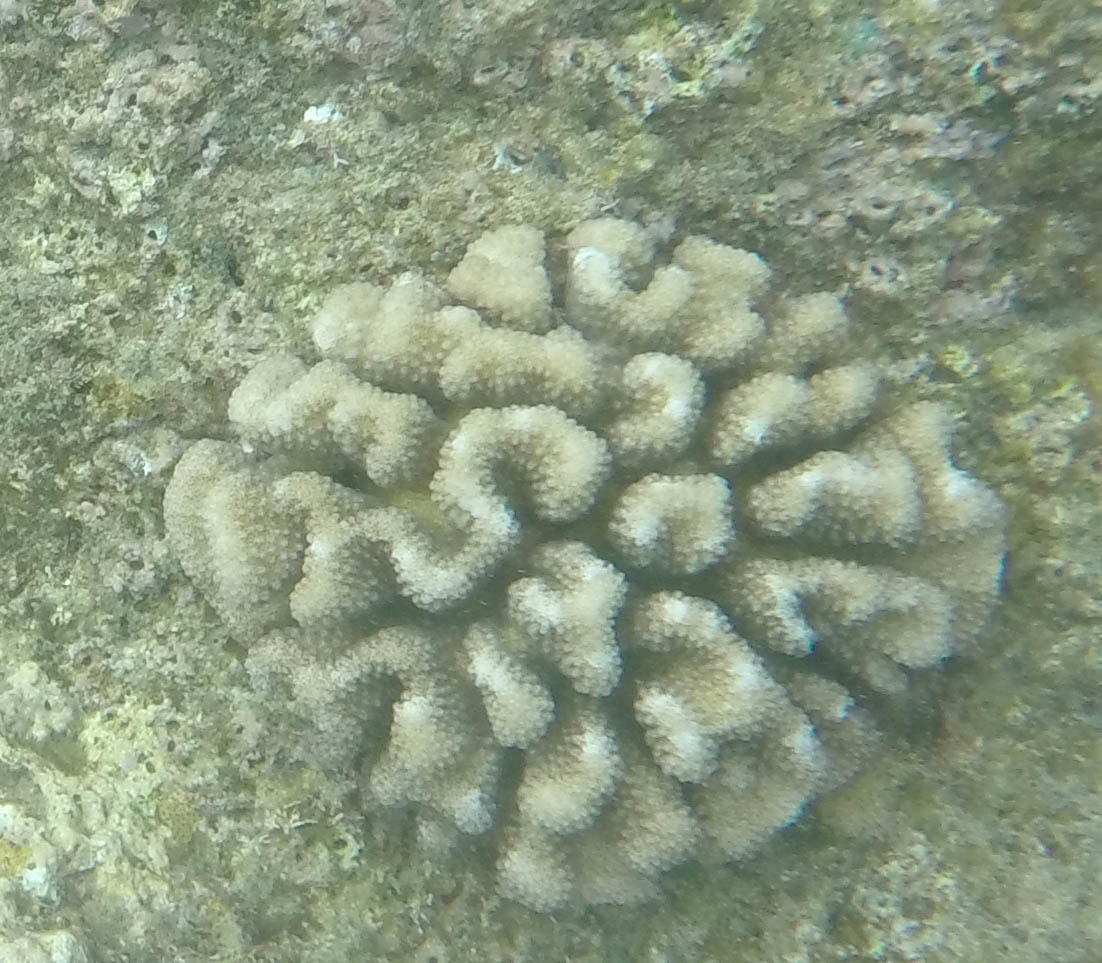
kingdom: Animalia
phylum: Cnidaria
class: Anthozoa
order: Scleractinia
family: Pocilloporidae
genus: Pocillopora
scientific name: Pocillopora meandrina
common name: Cauliflower coral
